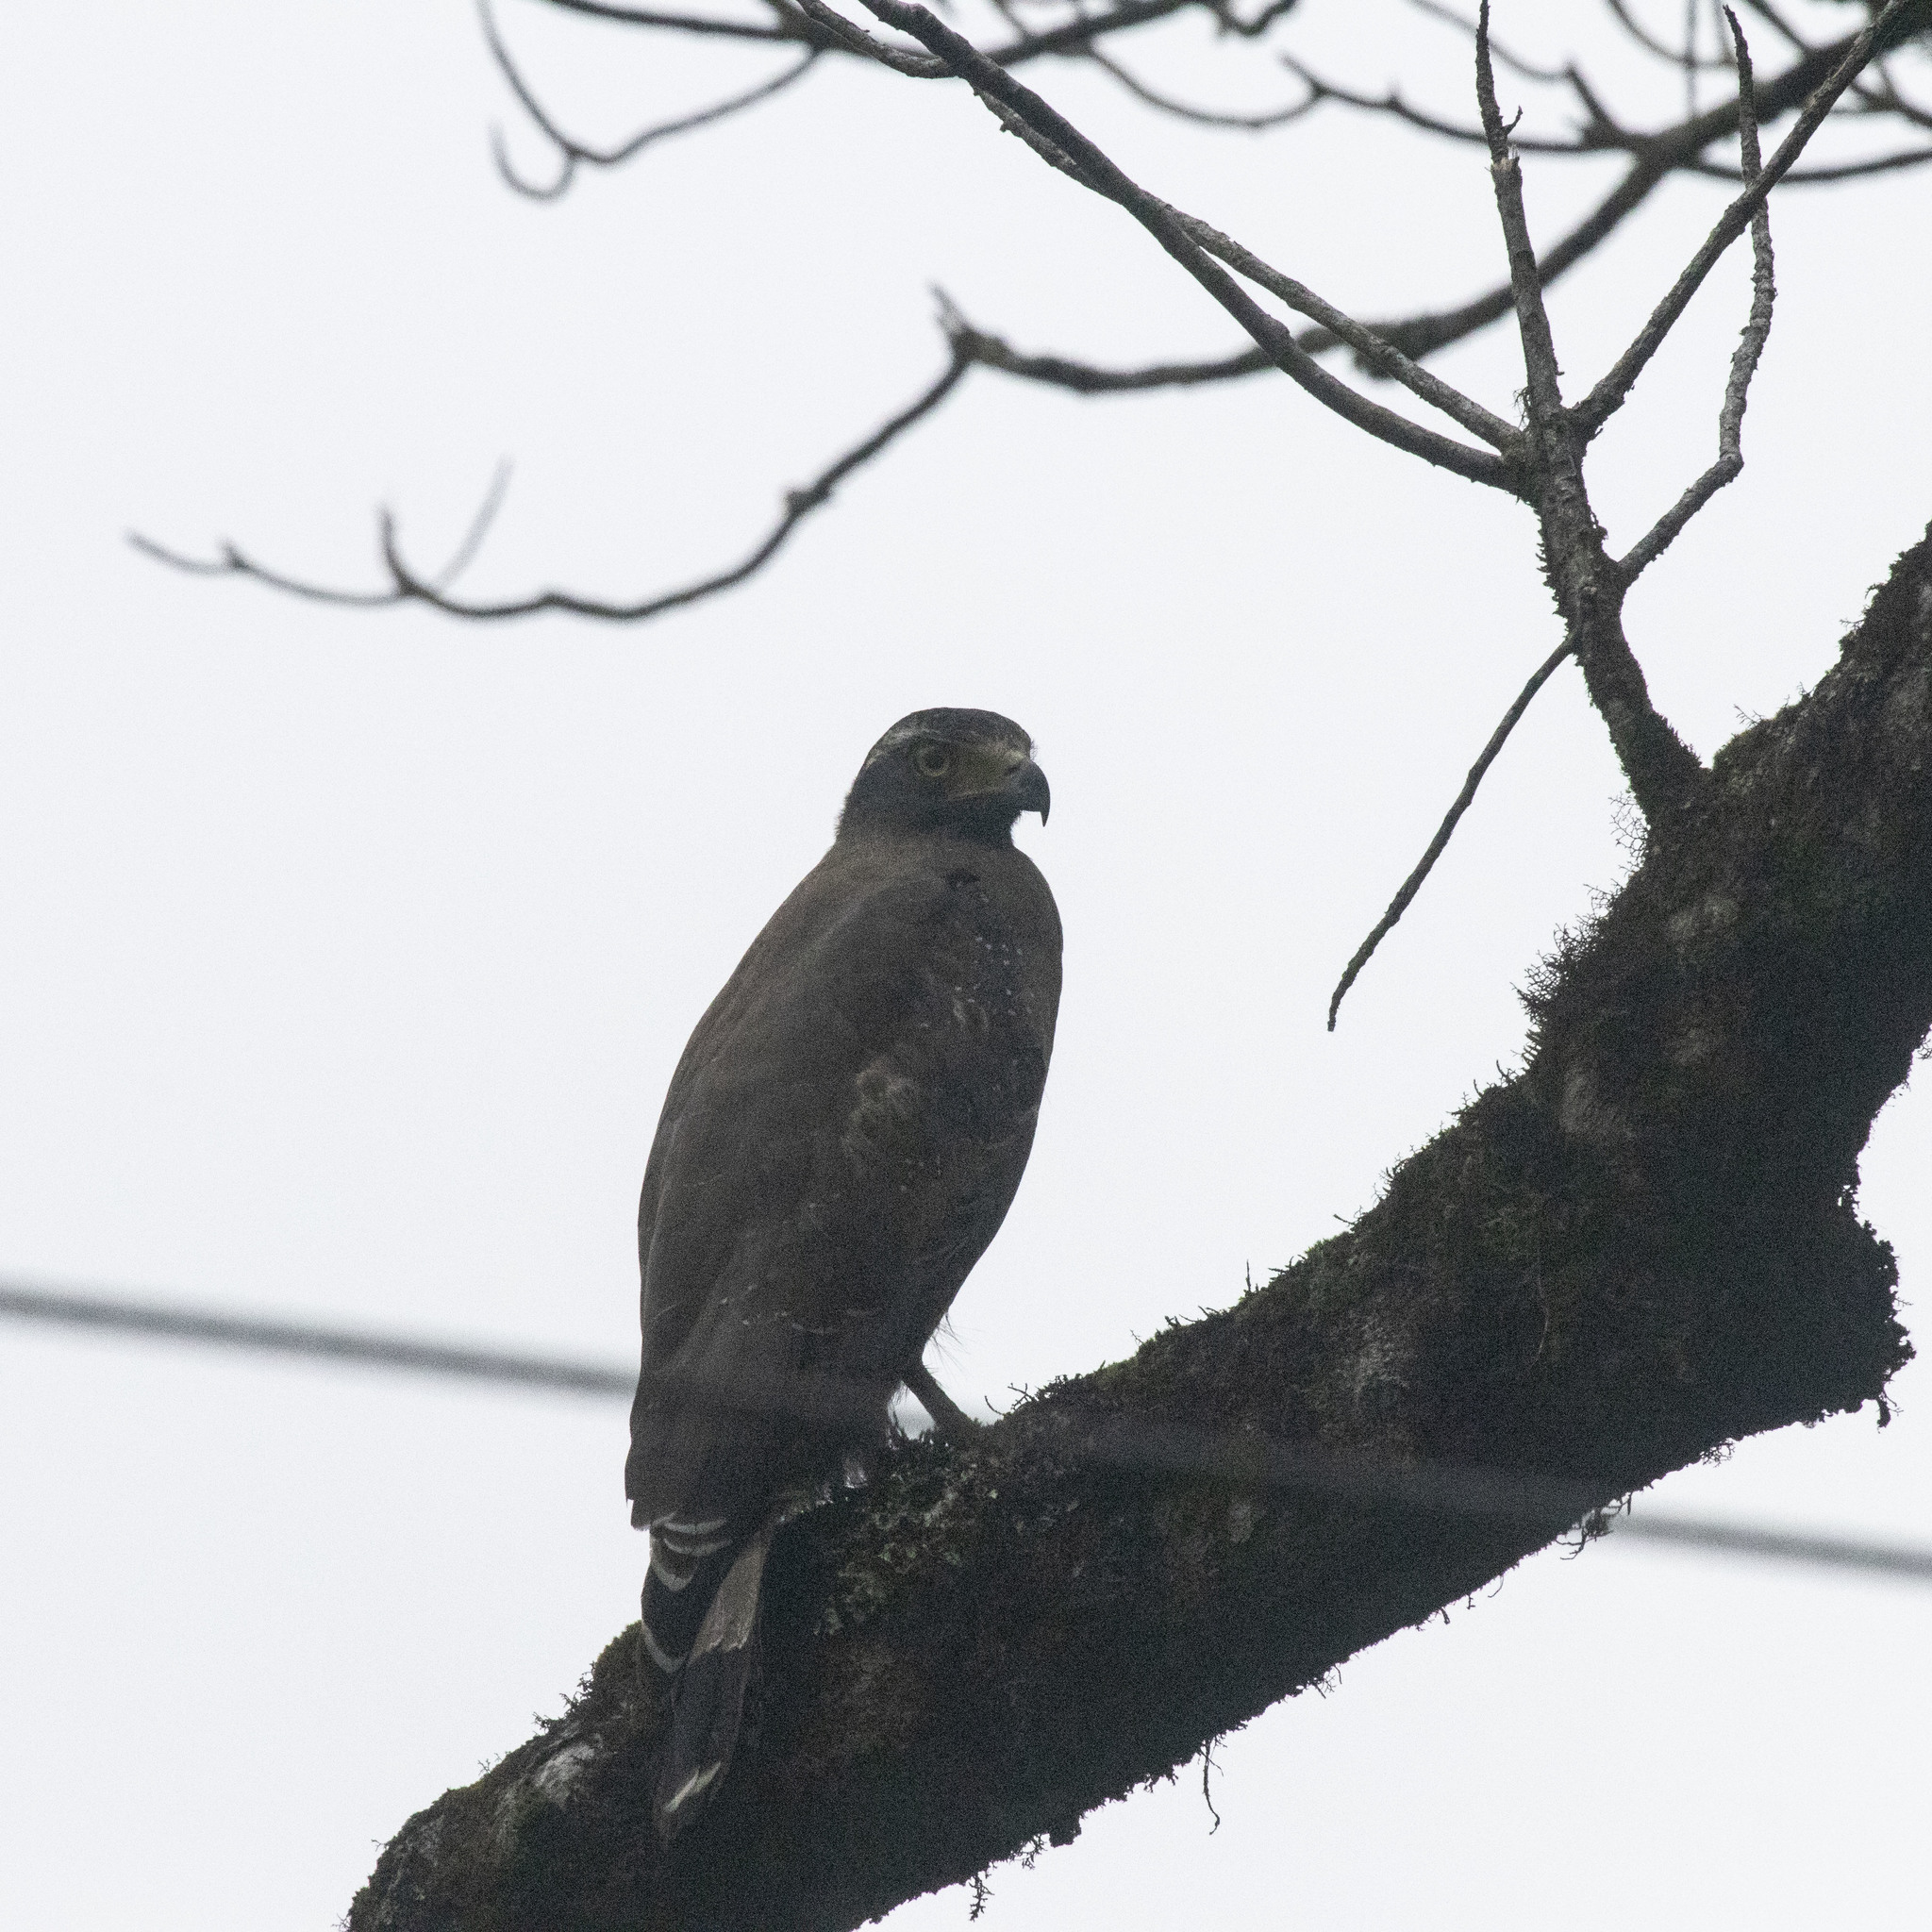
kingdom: Animalia
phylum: Chordata
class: Aves
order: Accipitriformes
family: Accipitridae
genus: Spilornis
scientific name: Spilornis cheela
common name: Crested serpent eagle
